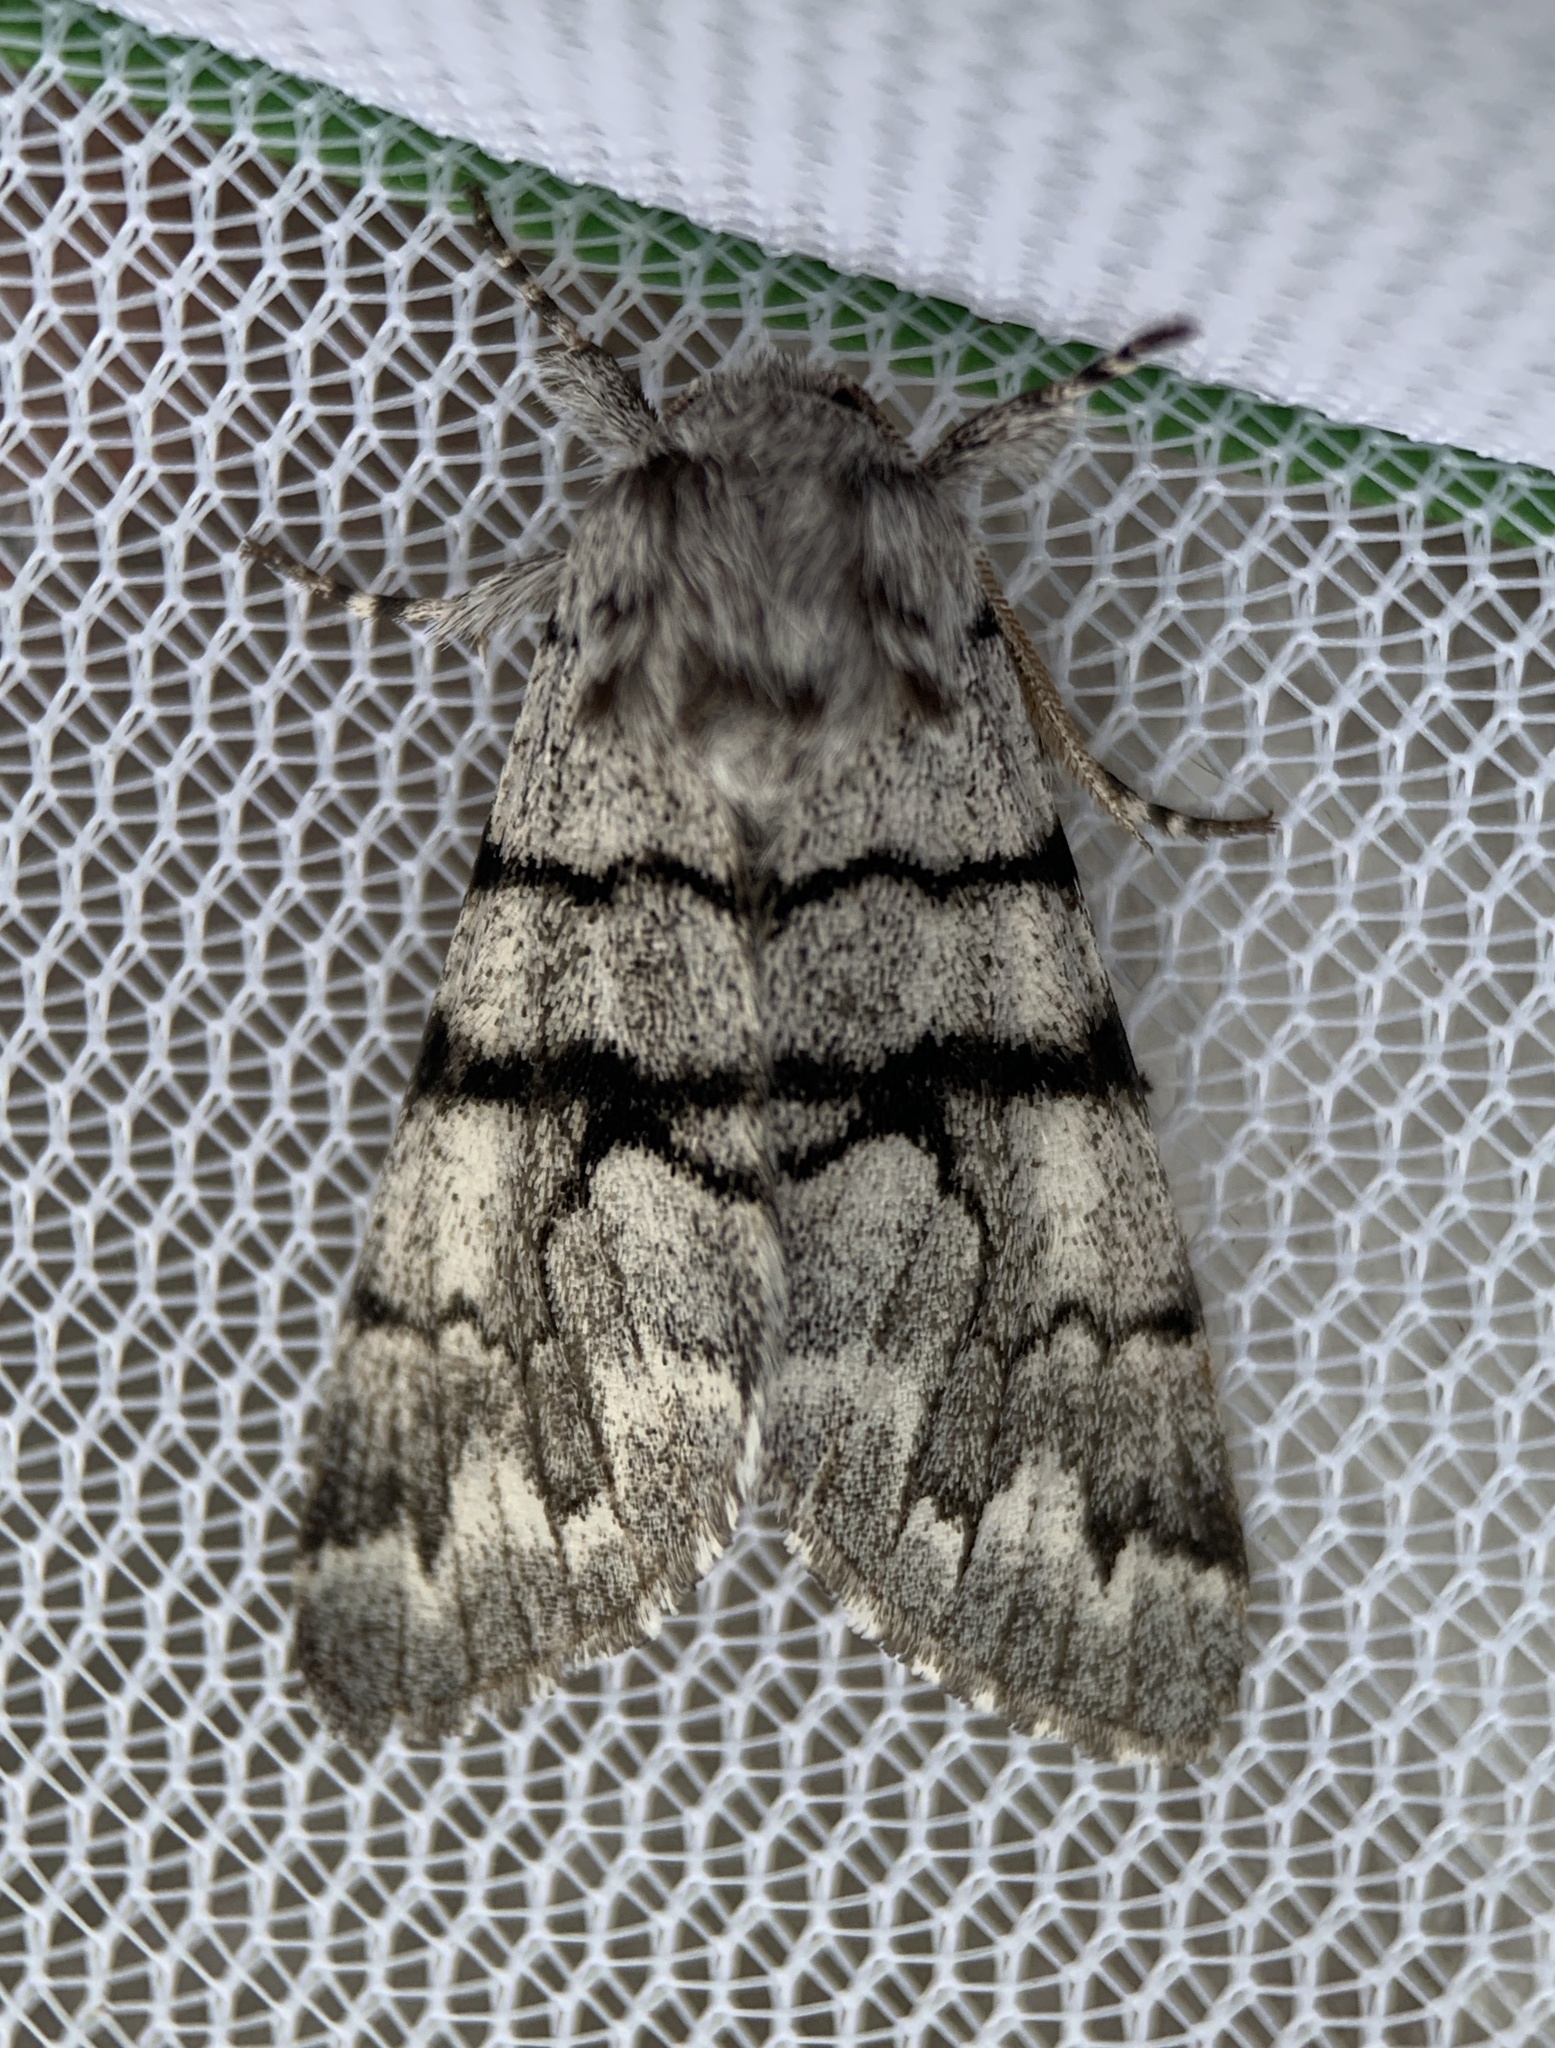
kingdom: Animalia
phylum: Arthropoda
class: Insecta
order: Lepidoptera
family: Noctuidae
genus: Panthea
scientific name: Panthea furcilla
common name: Eastern panthea moth
